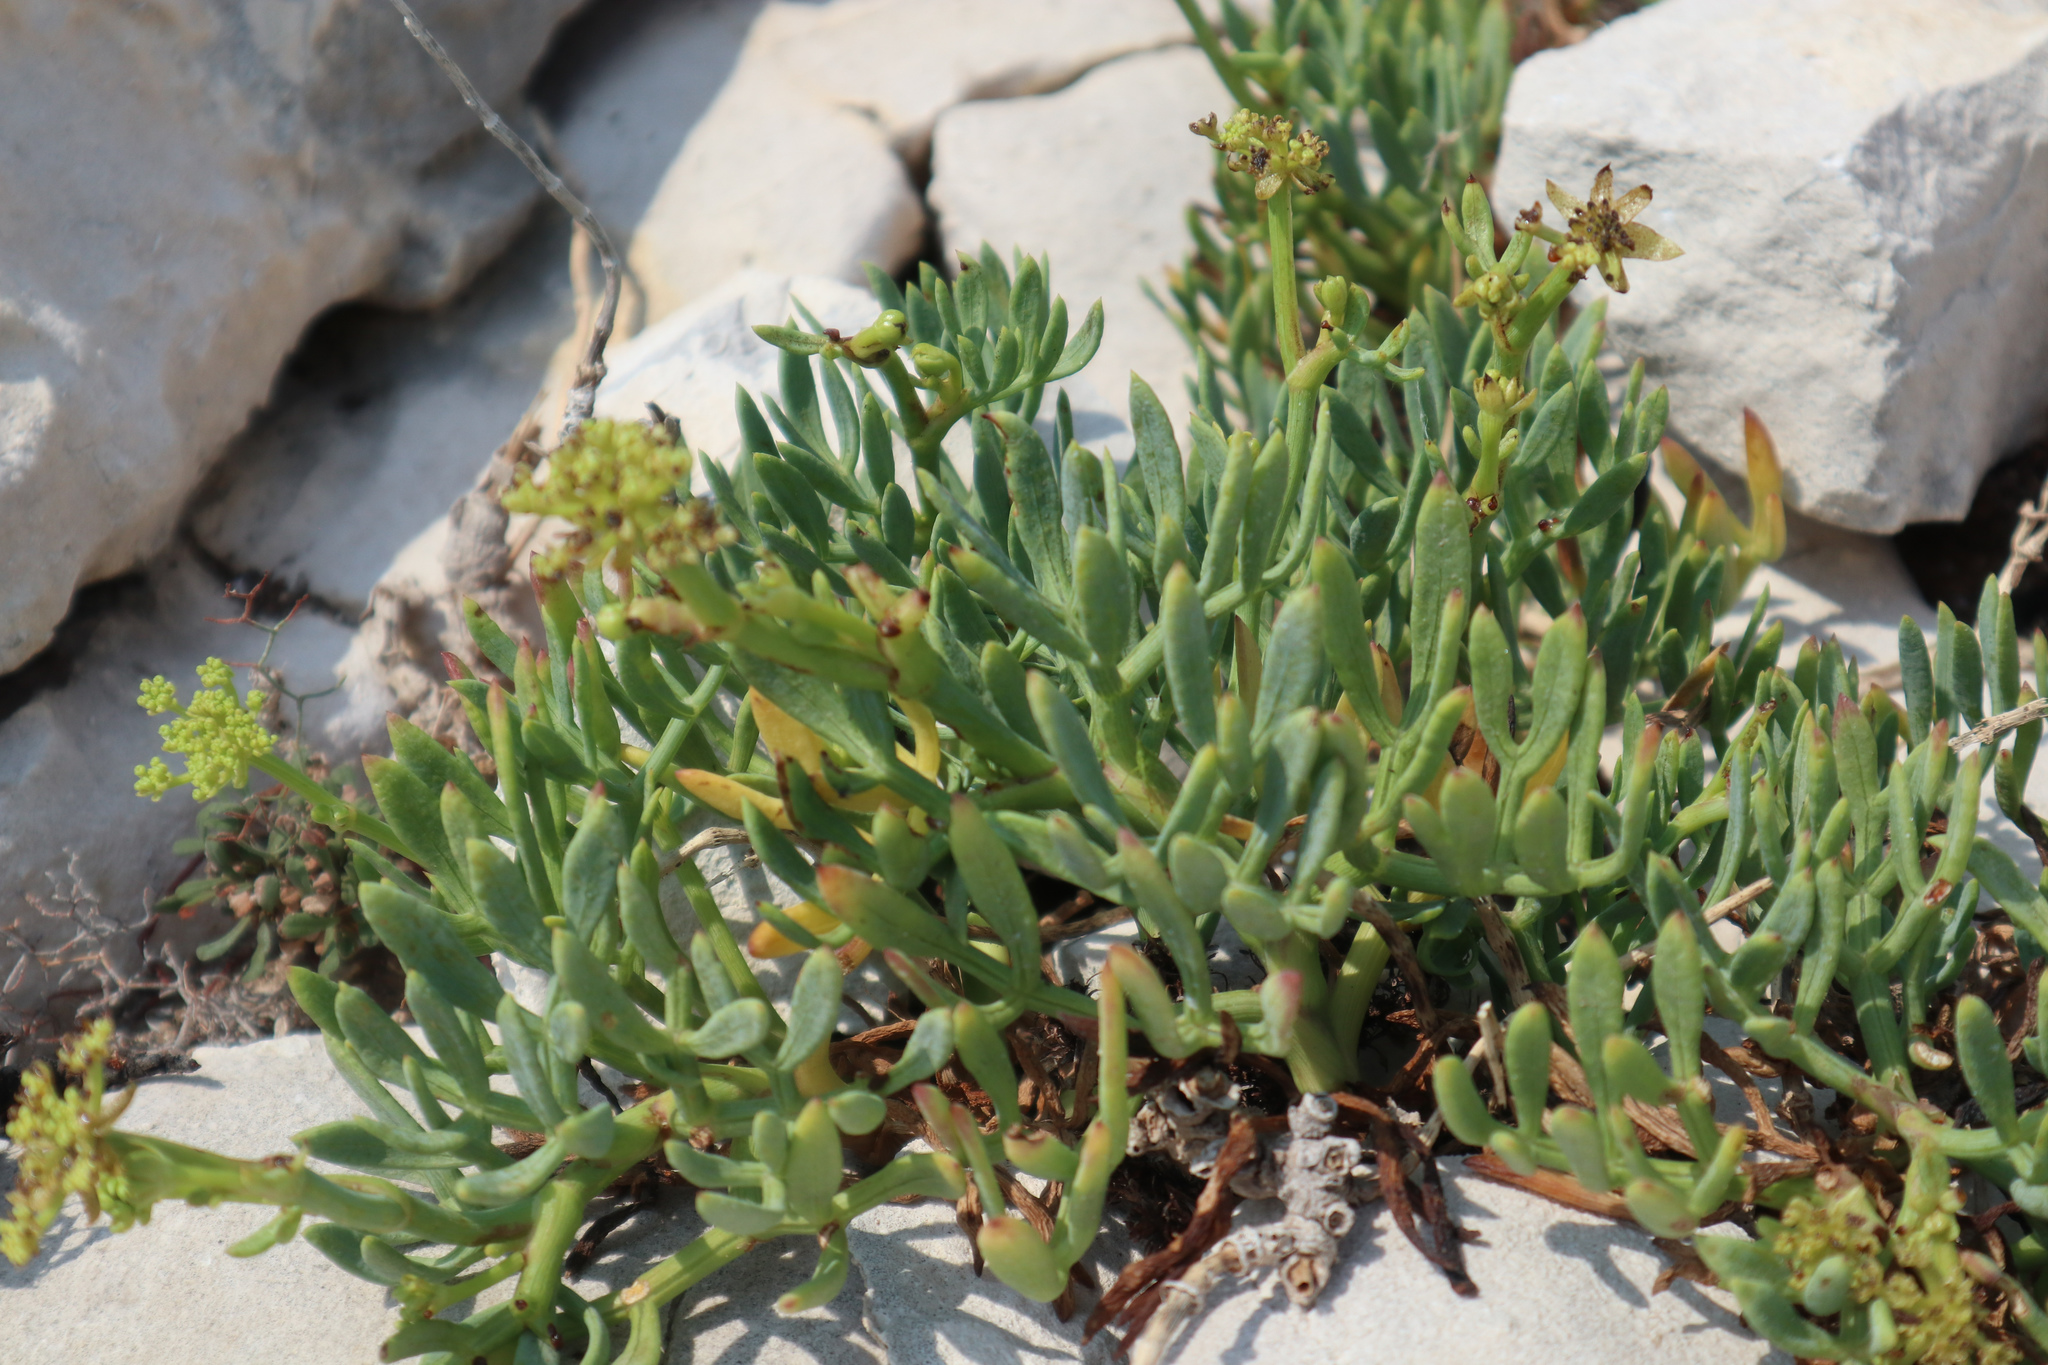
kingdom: Plantae
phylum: Tracheophyta
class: Magnoliopsida
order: Apiales
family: Apiaceae
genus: Crithmum
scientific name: Crithmum maritimum
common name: Rock samphire
